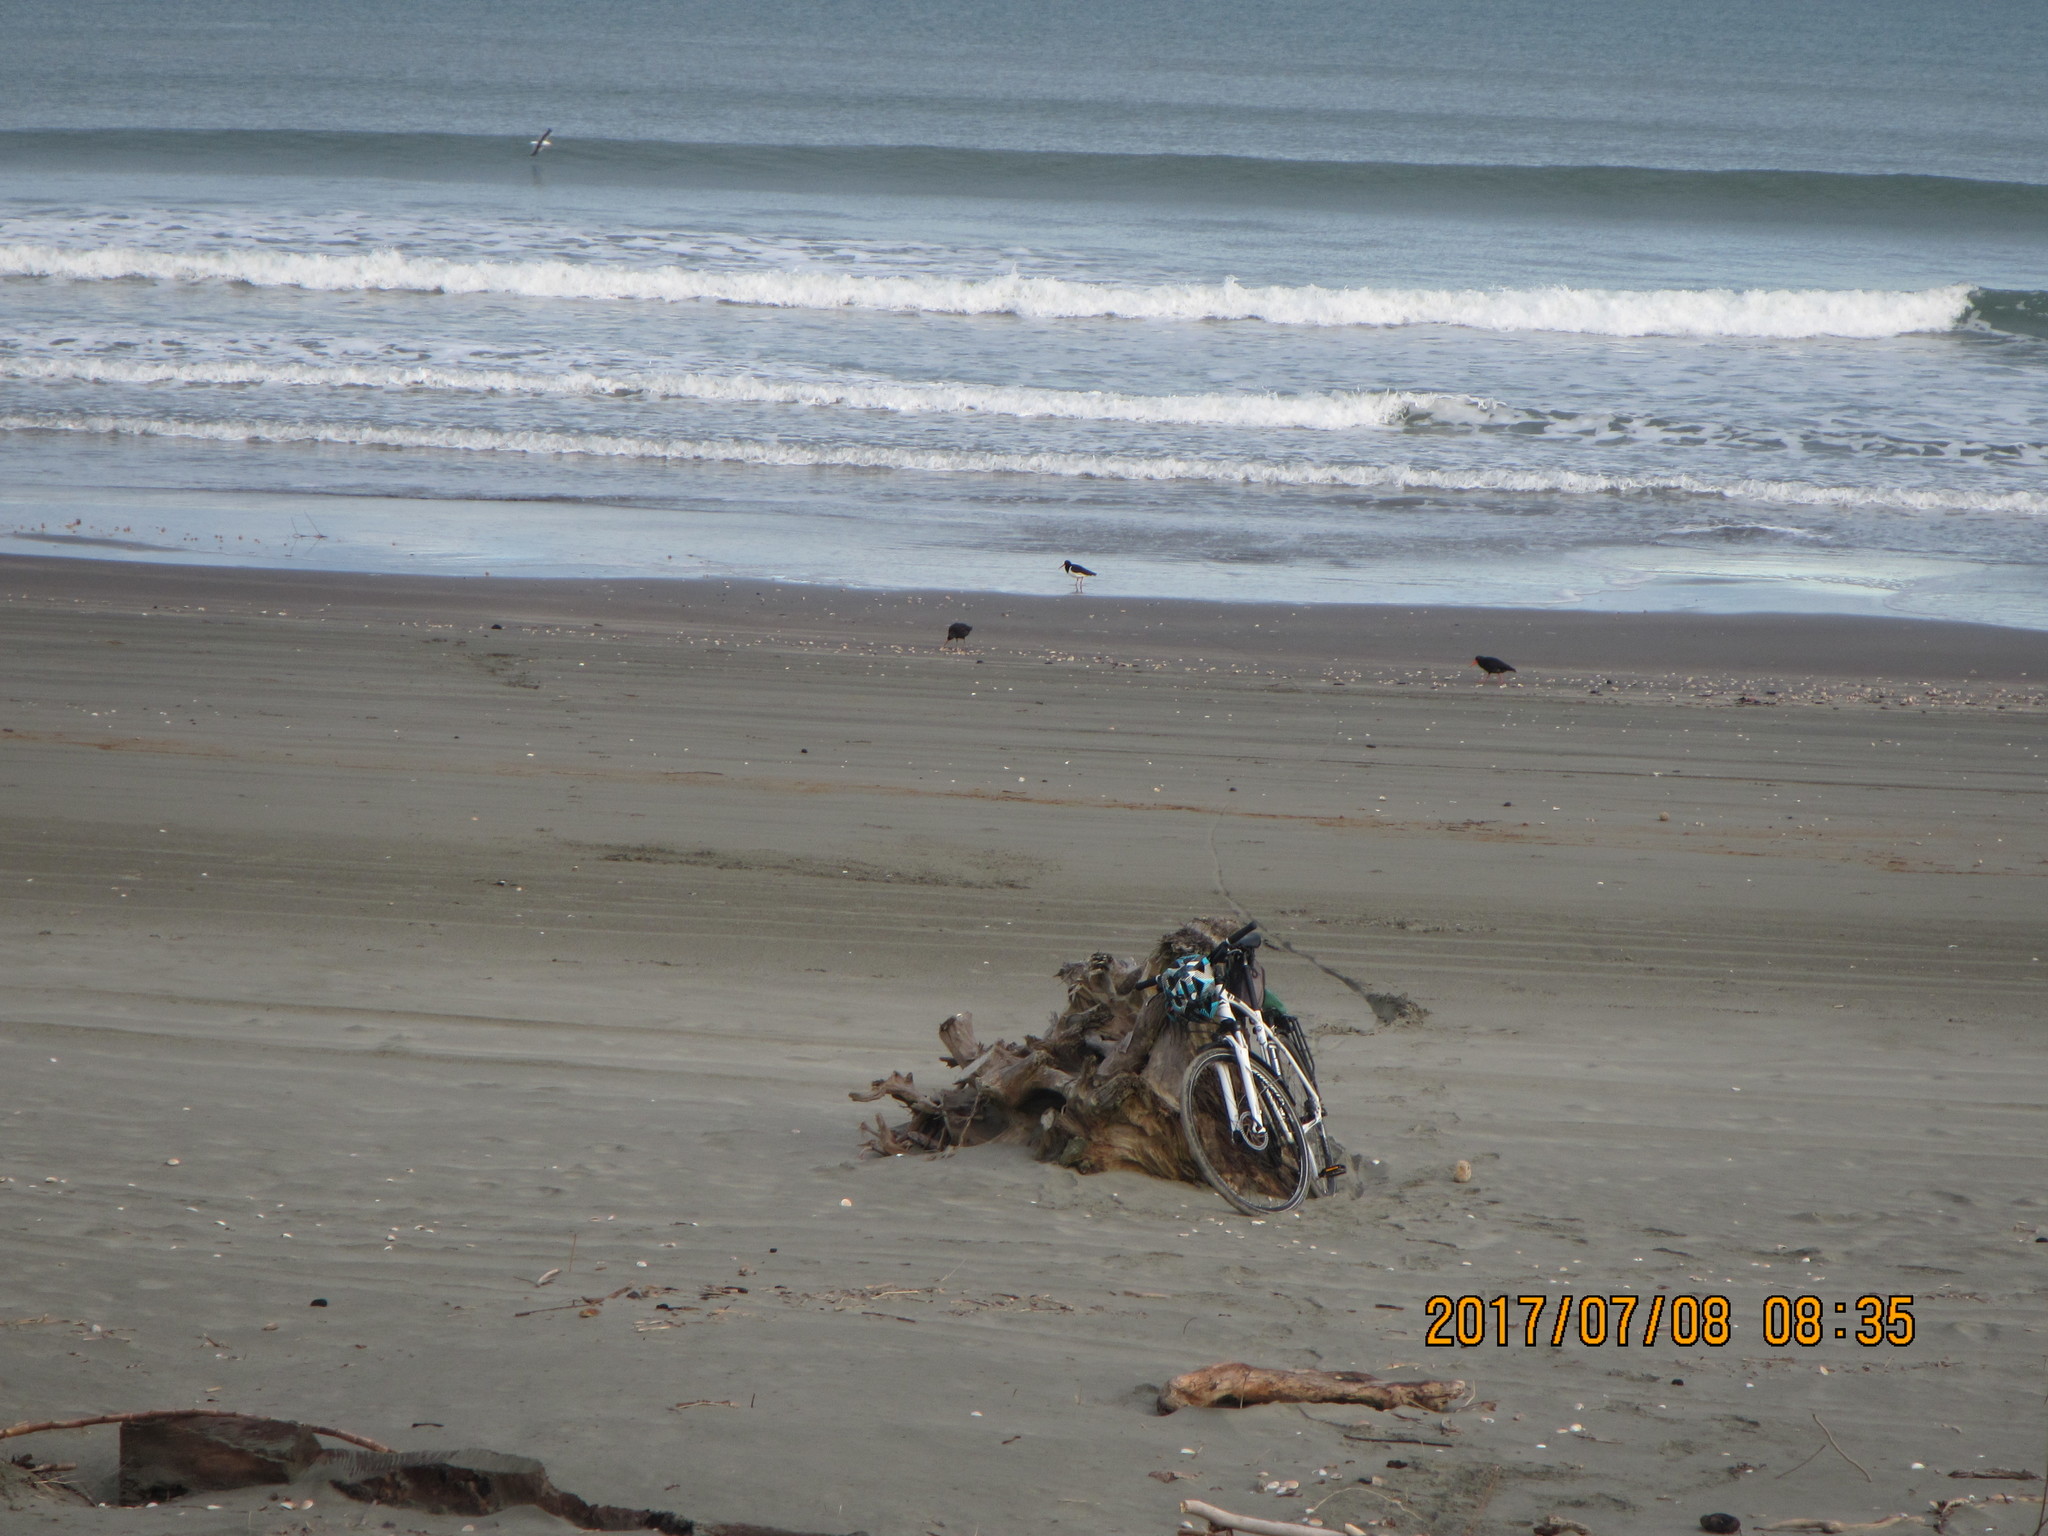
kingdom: Animalia
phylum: Chordata
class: Aves
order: Charadriiformes
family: Haematopodidae
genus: Haematopus
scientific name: Haematopus unicolor
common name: Variable oystercatcher
